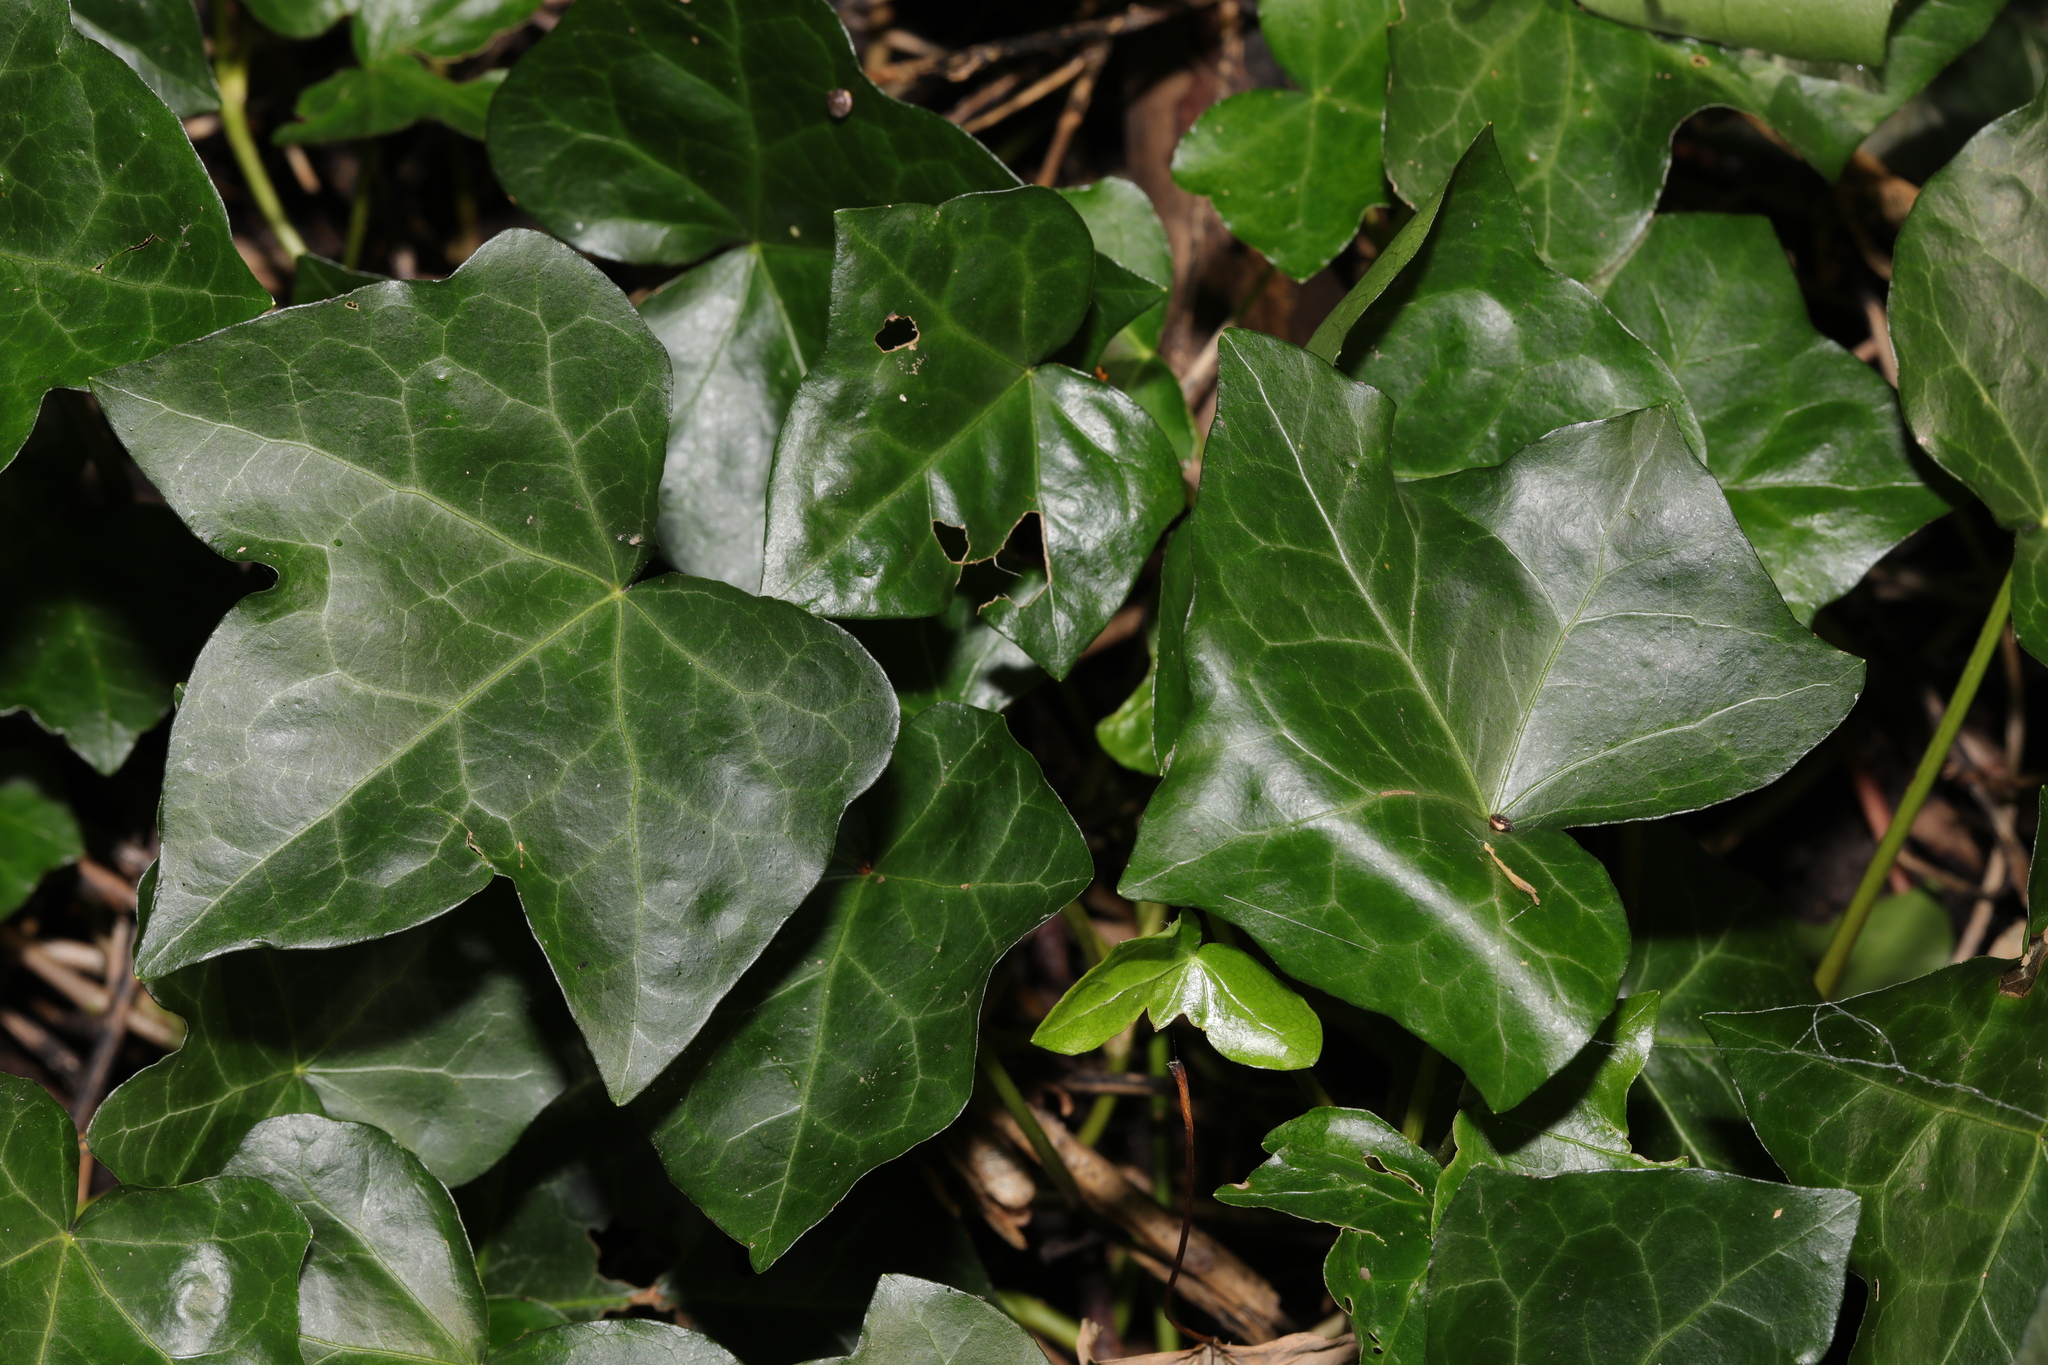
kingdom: Plantae
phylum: Tracheophyta
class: Magnoliopsida
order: Apiales
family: Araliaceae
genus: Hedera
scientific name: Hedera helix
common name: Ivy
